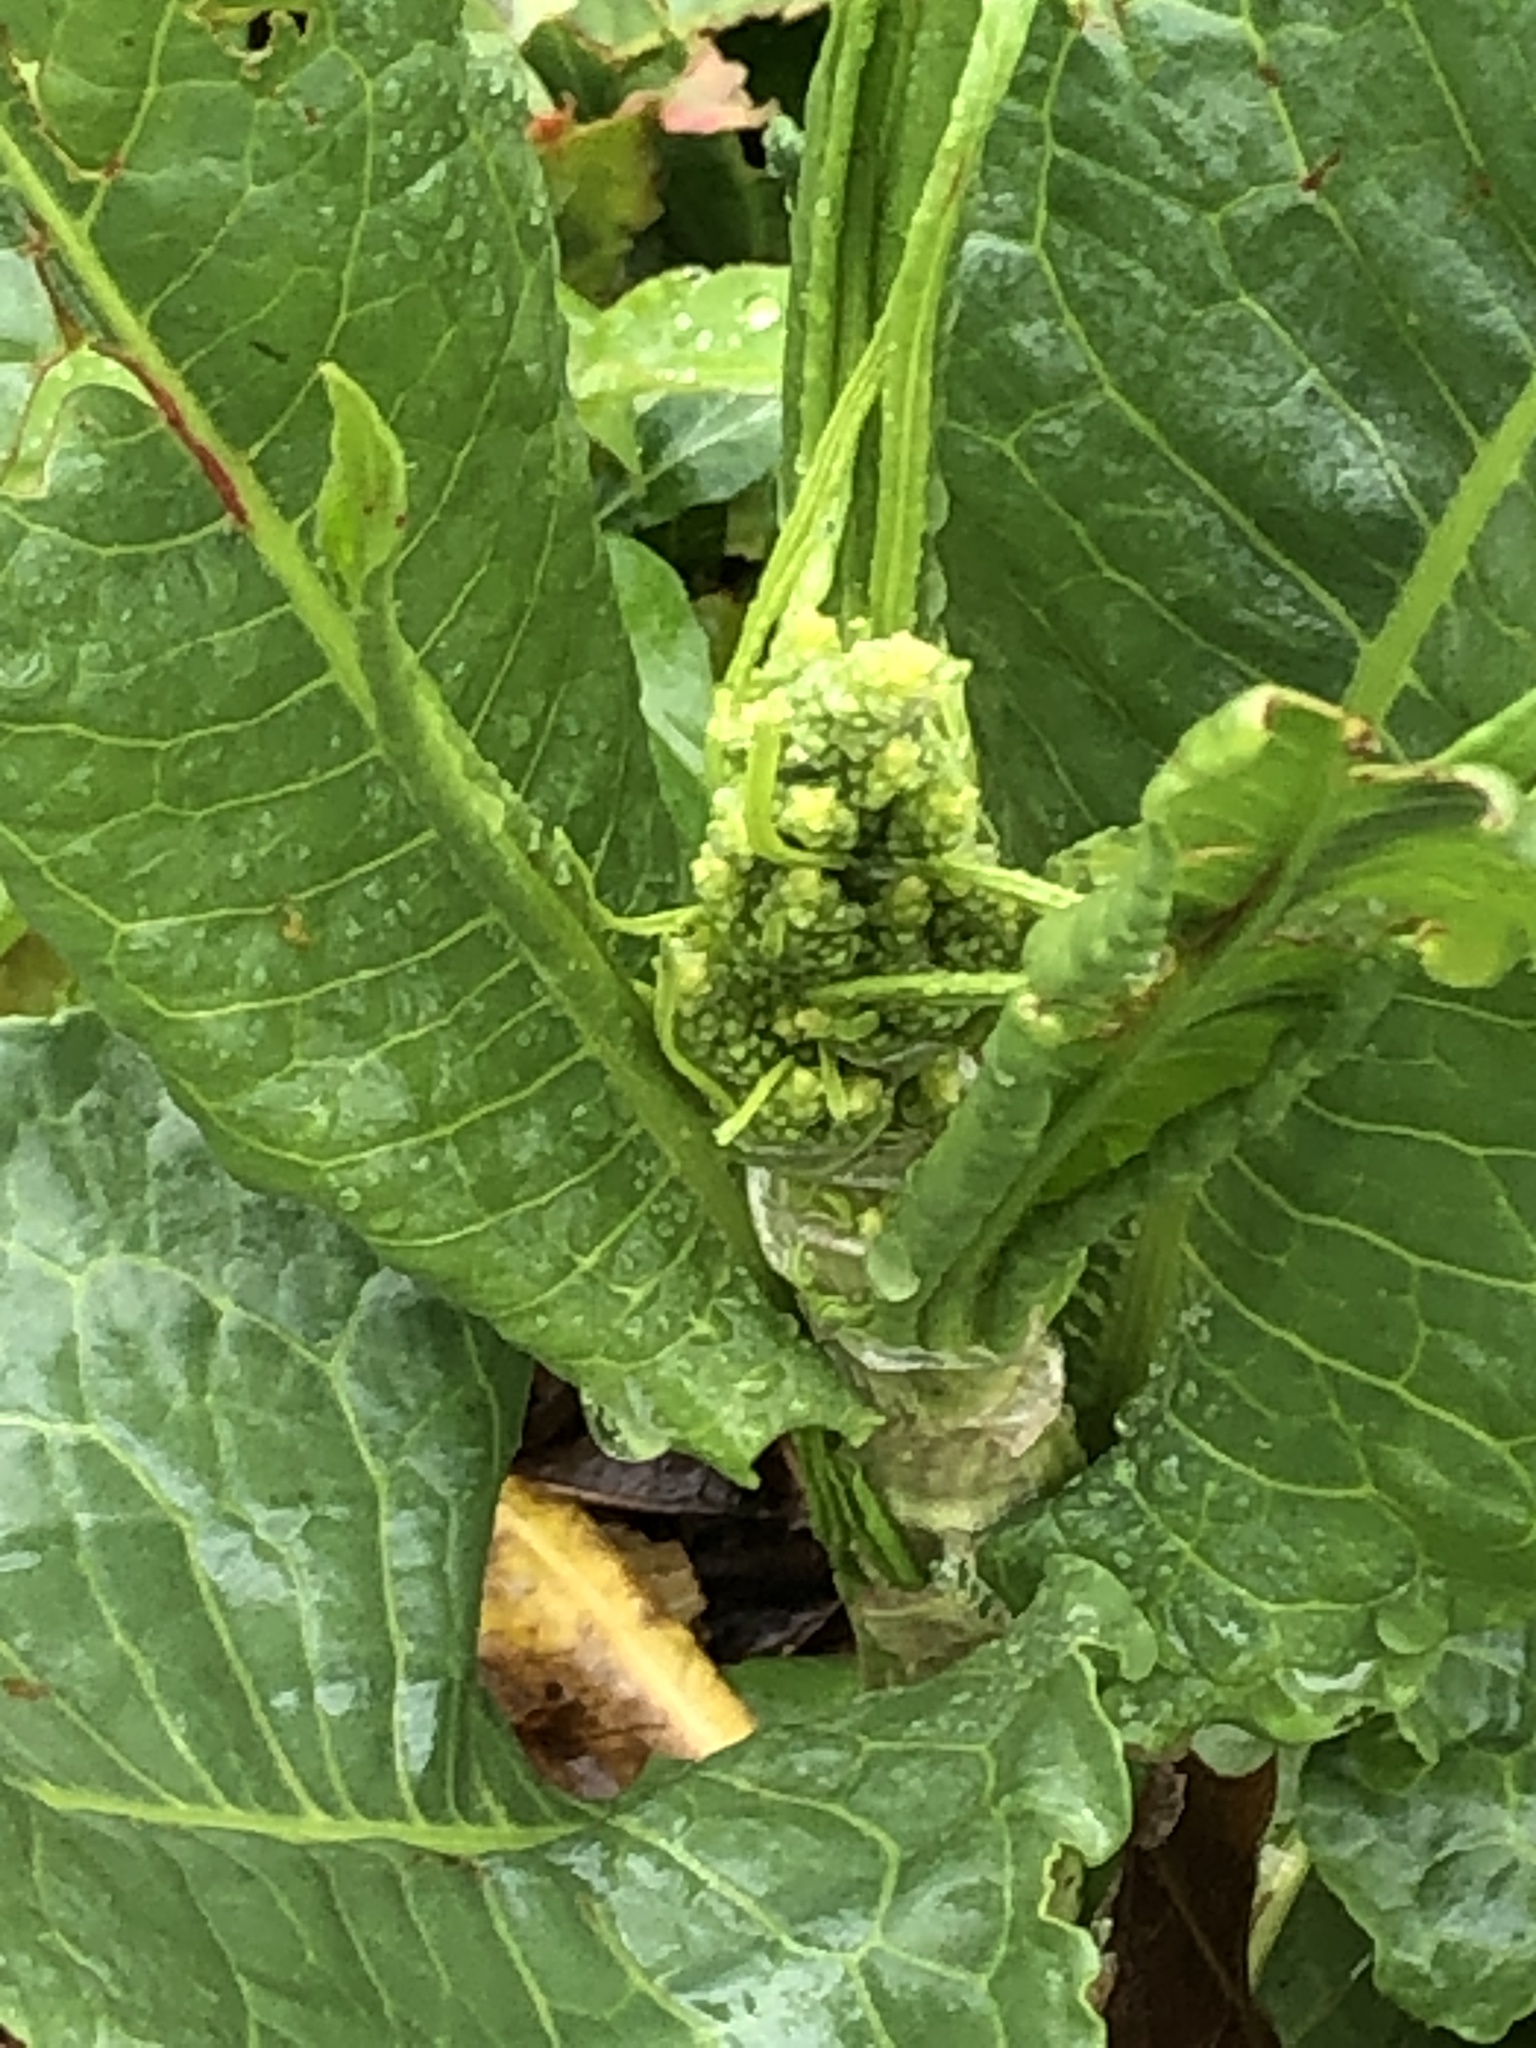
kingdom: Plantae
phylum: Tracheophyta
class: Magnoliopsida
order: Caryophyllales
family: Polygonaceae
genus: Rumex
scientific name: Rumex crispus
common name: Curled dock
